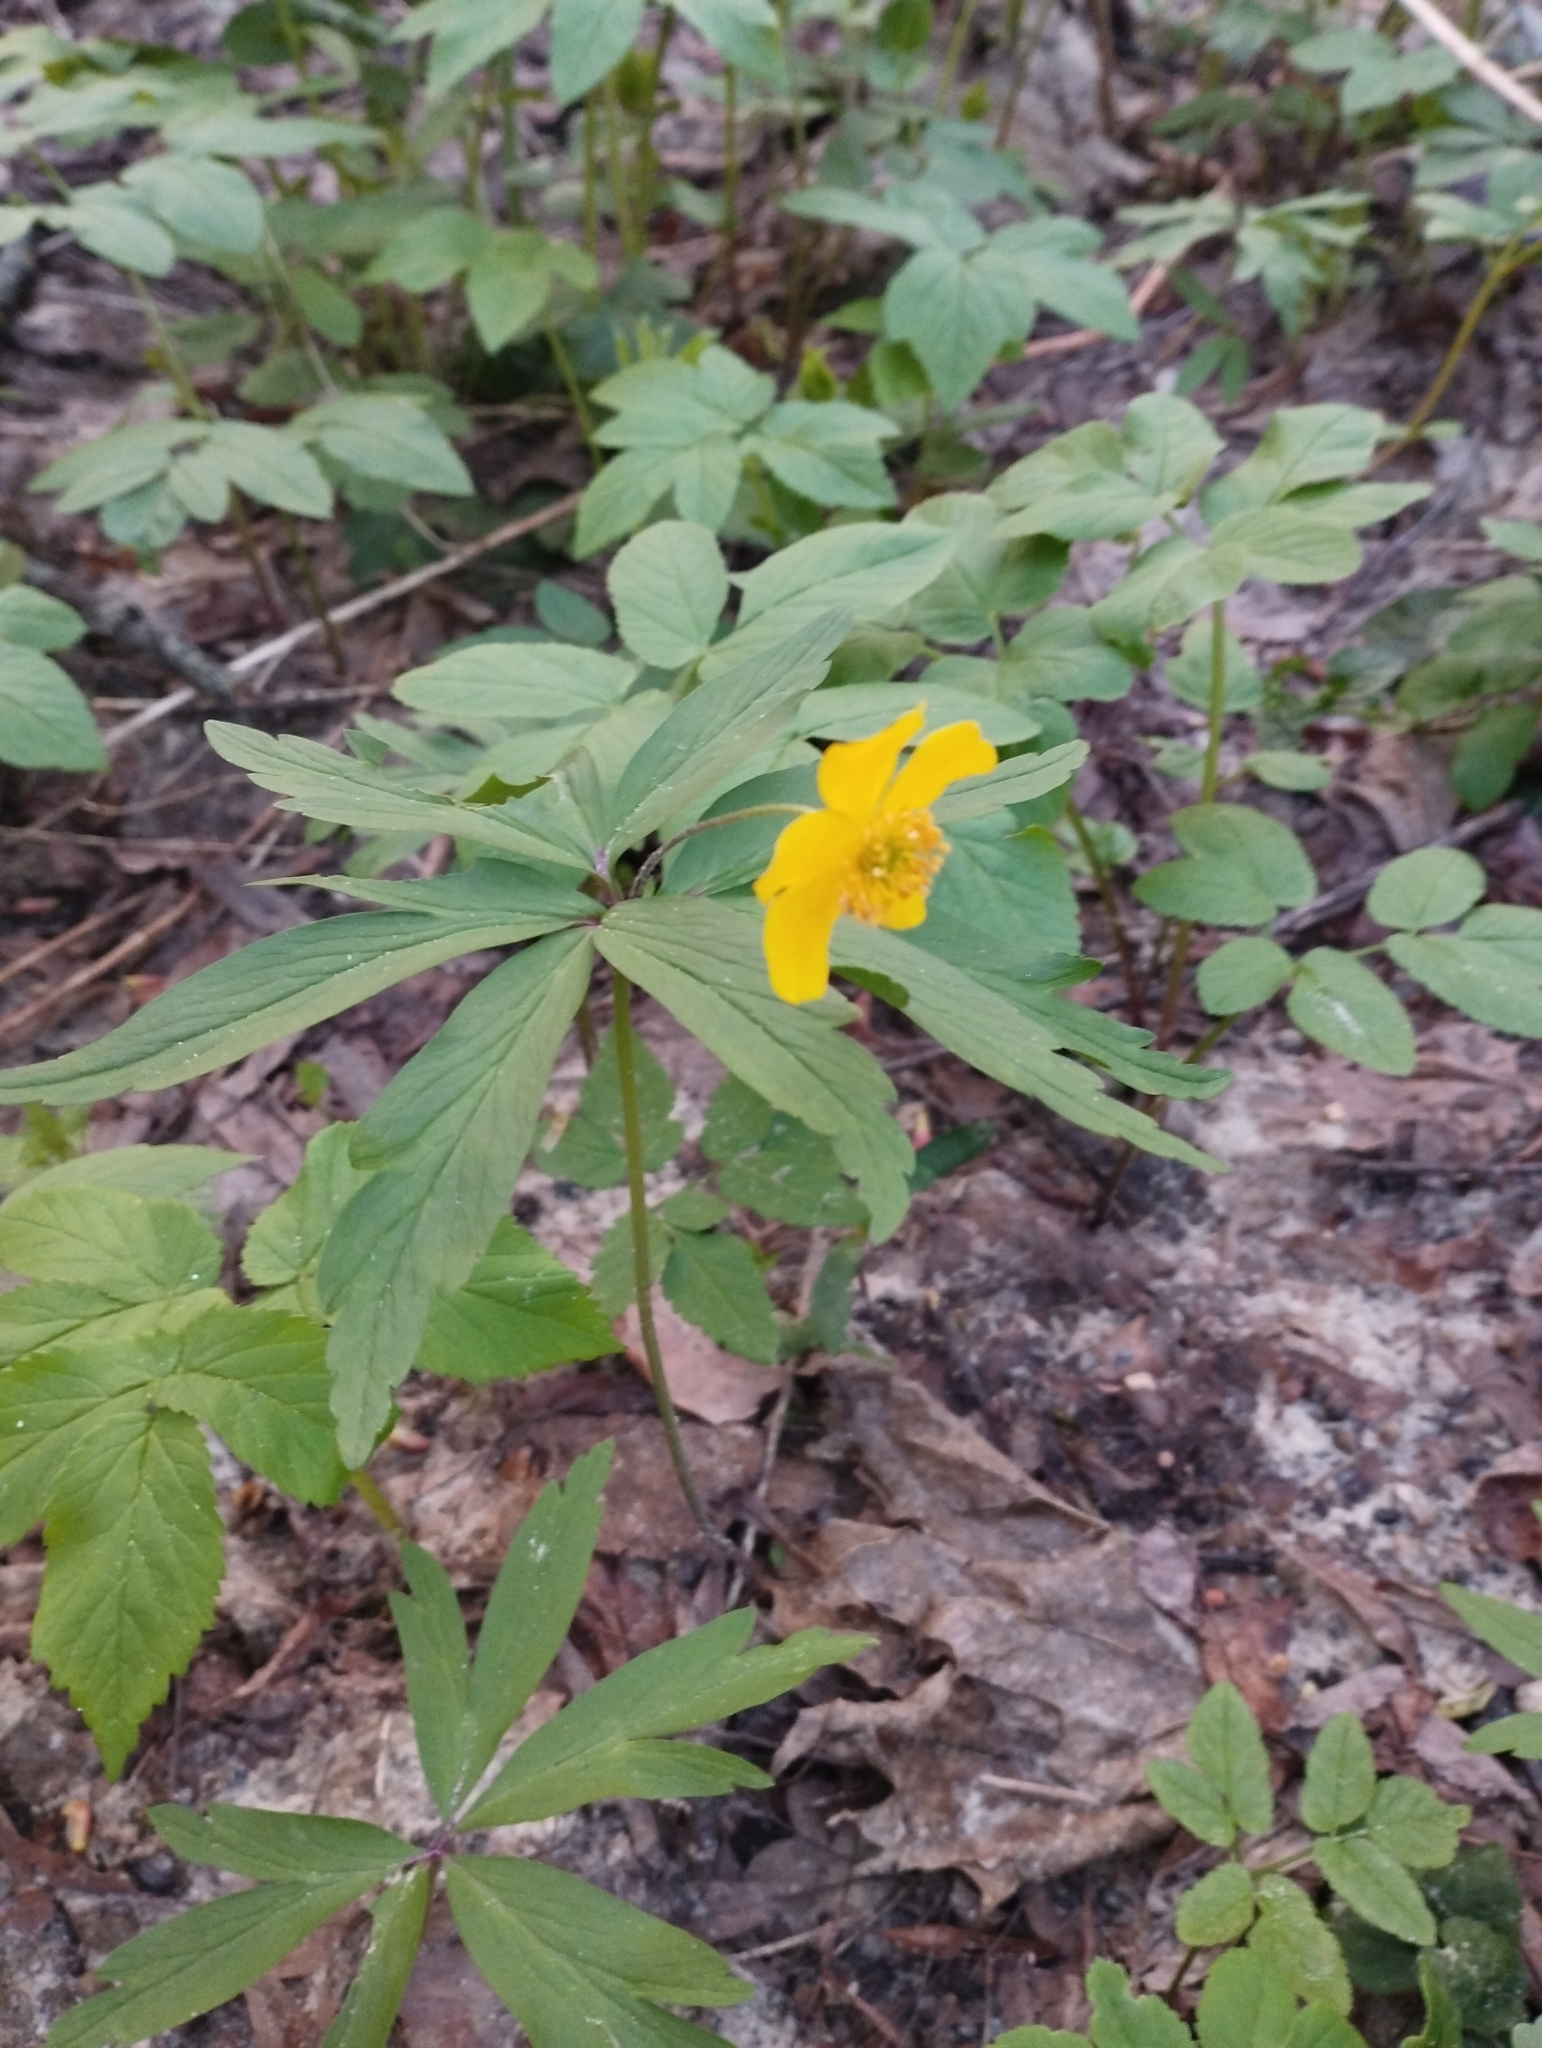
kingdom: Plantae
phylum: Tracheophyta
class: Magnoliopsida
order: Ranunculales
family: Ranunculaceae
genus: Anemone
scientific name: Anemone ranunculoides
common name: Yellow anemone
